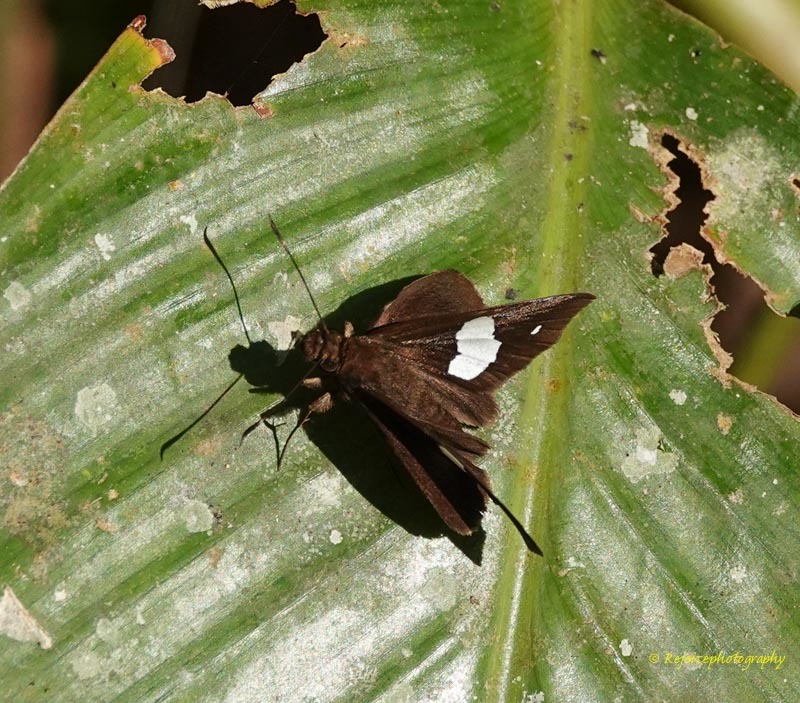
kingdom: Animalia
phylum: Arthropoda
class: Insecta
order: Lepidoptera
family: Hesperiidae
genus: Notocrypta
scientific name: Notocrypta paralysos
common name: Common banded demon
